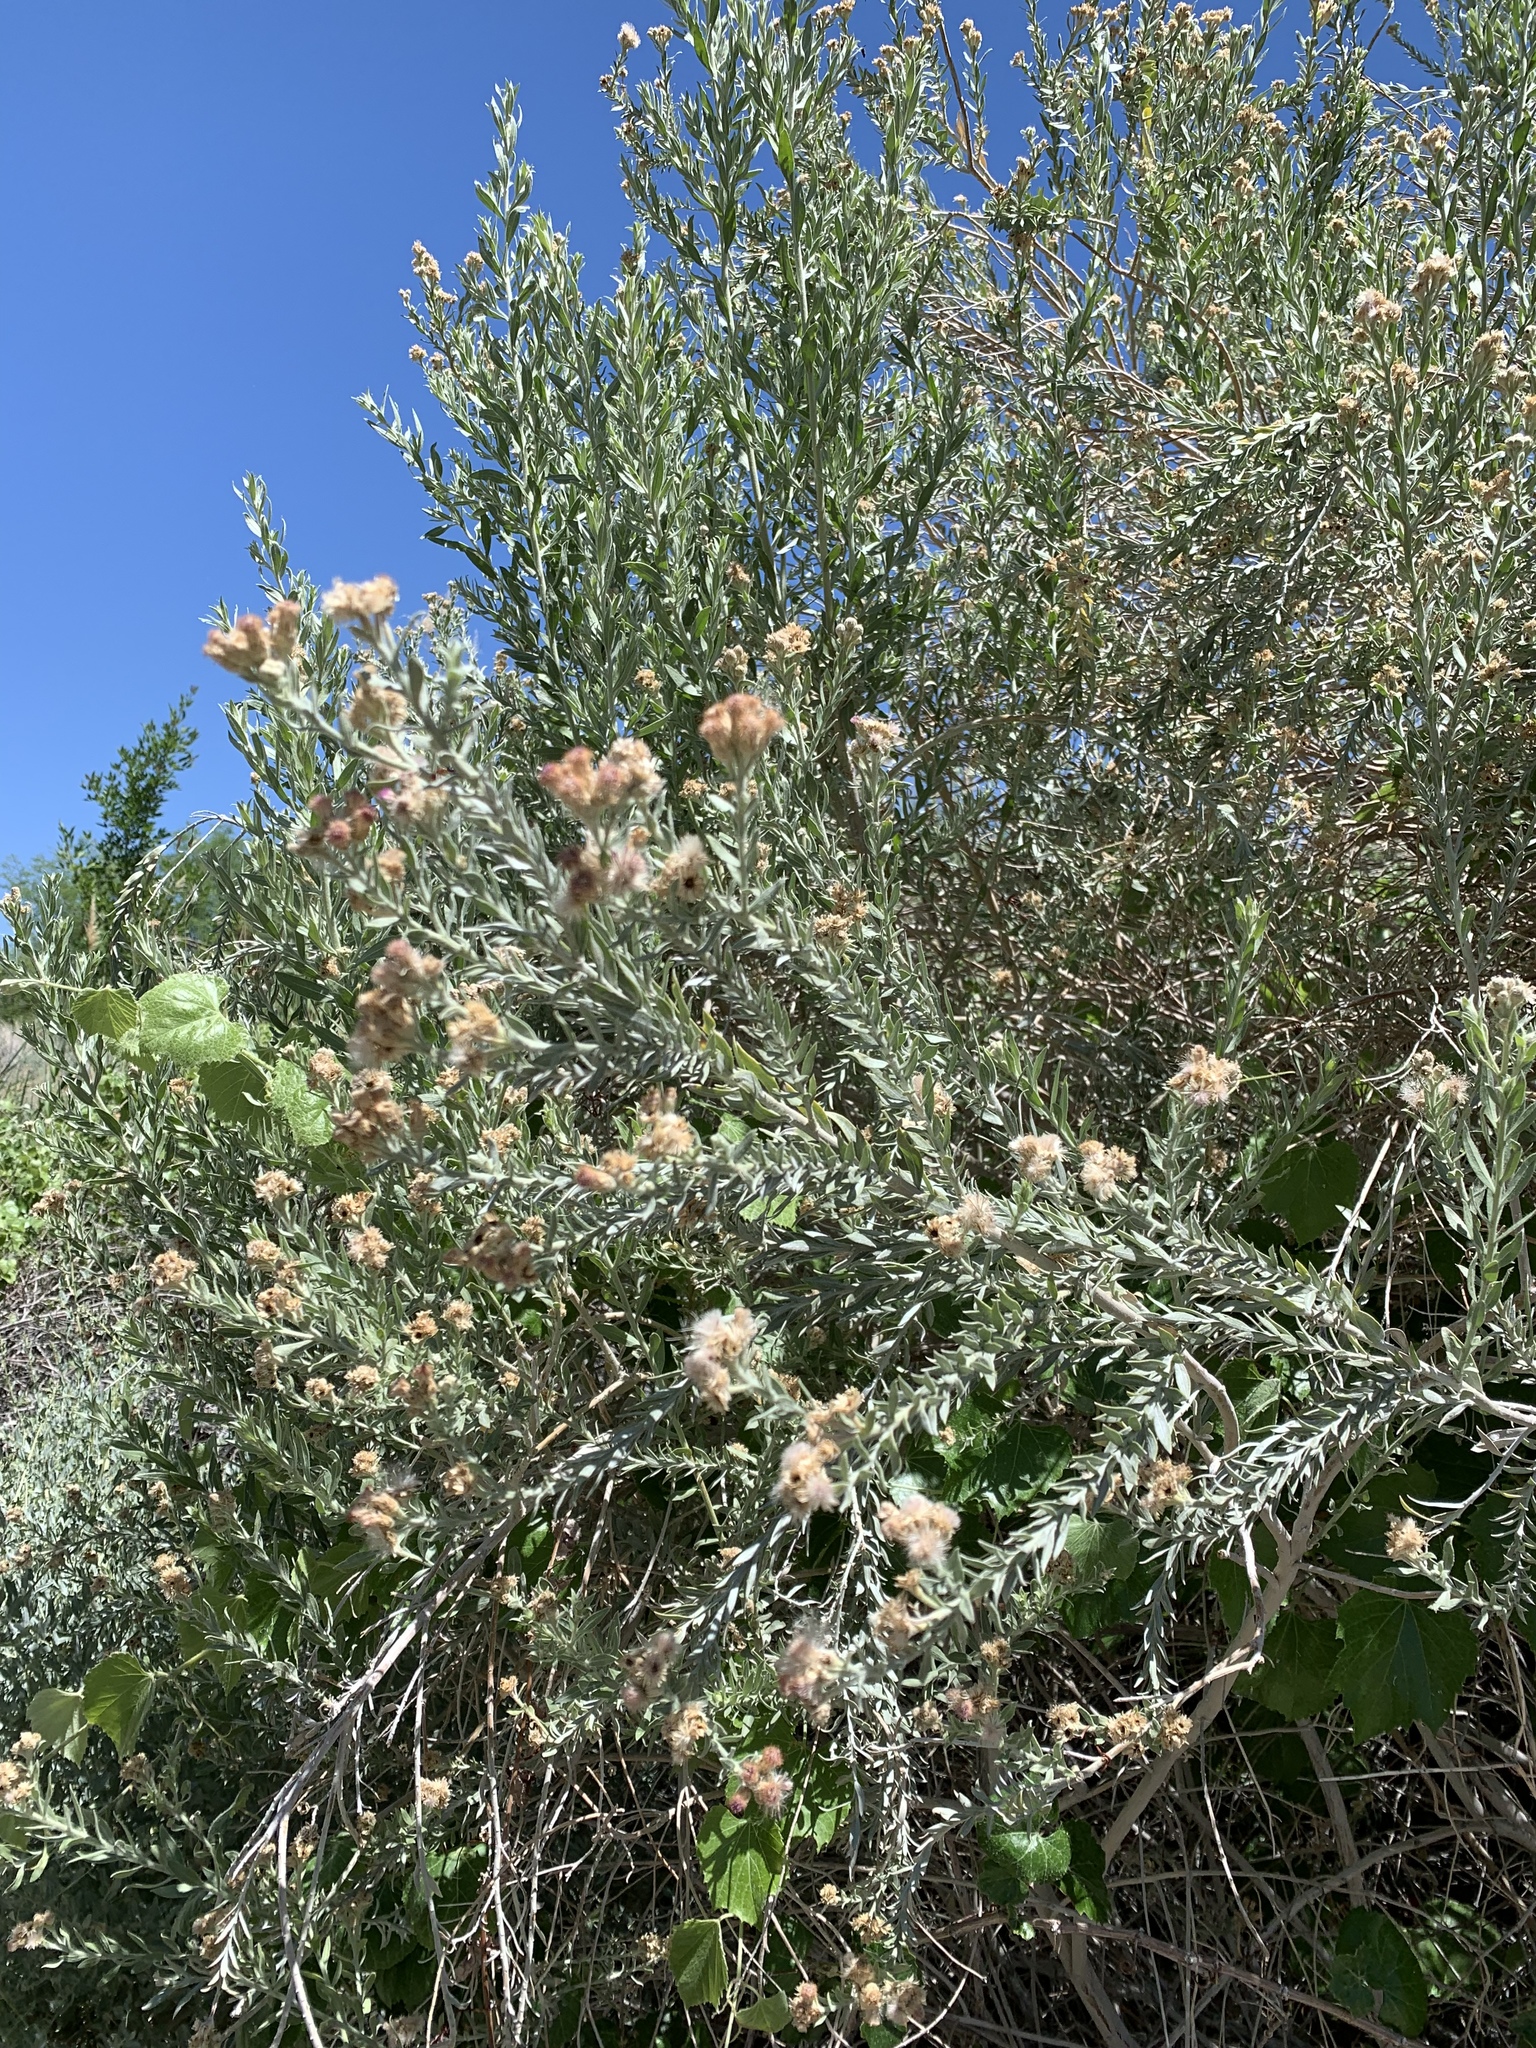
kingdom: Plantae
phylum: Tracheophyta
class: Magnoliopsida
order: Asterales
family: Asteraceae
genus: Pluchea
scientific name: Pluchea sericea
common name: Arrow-weed
